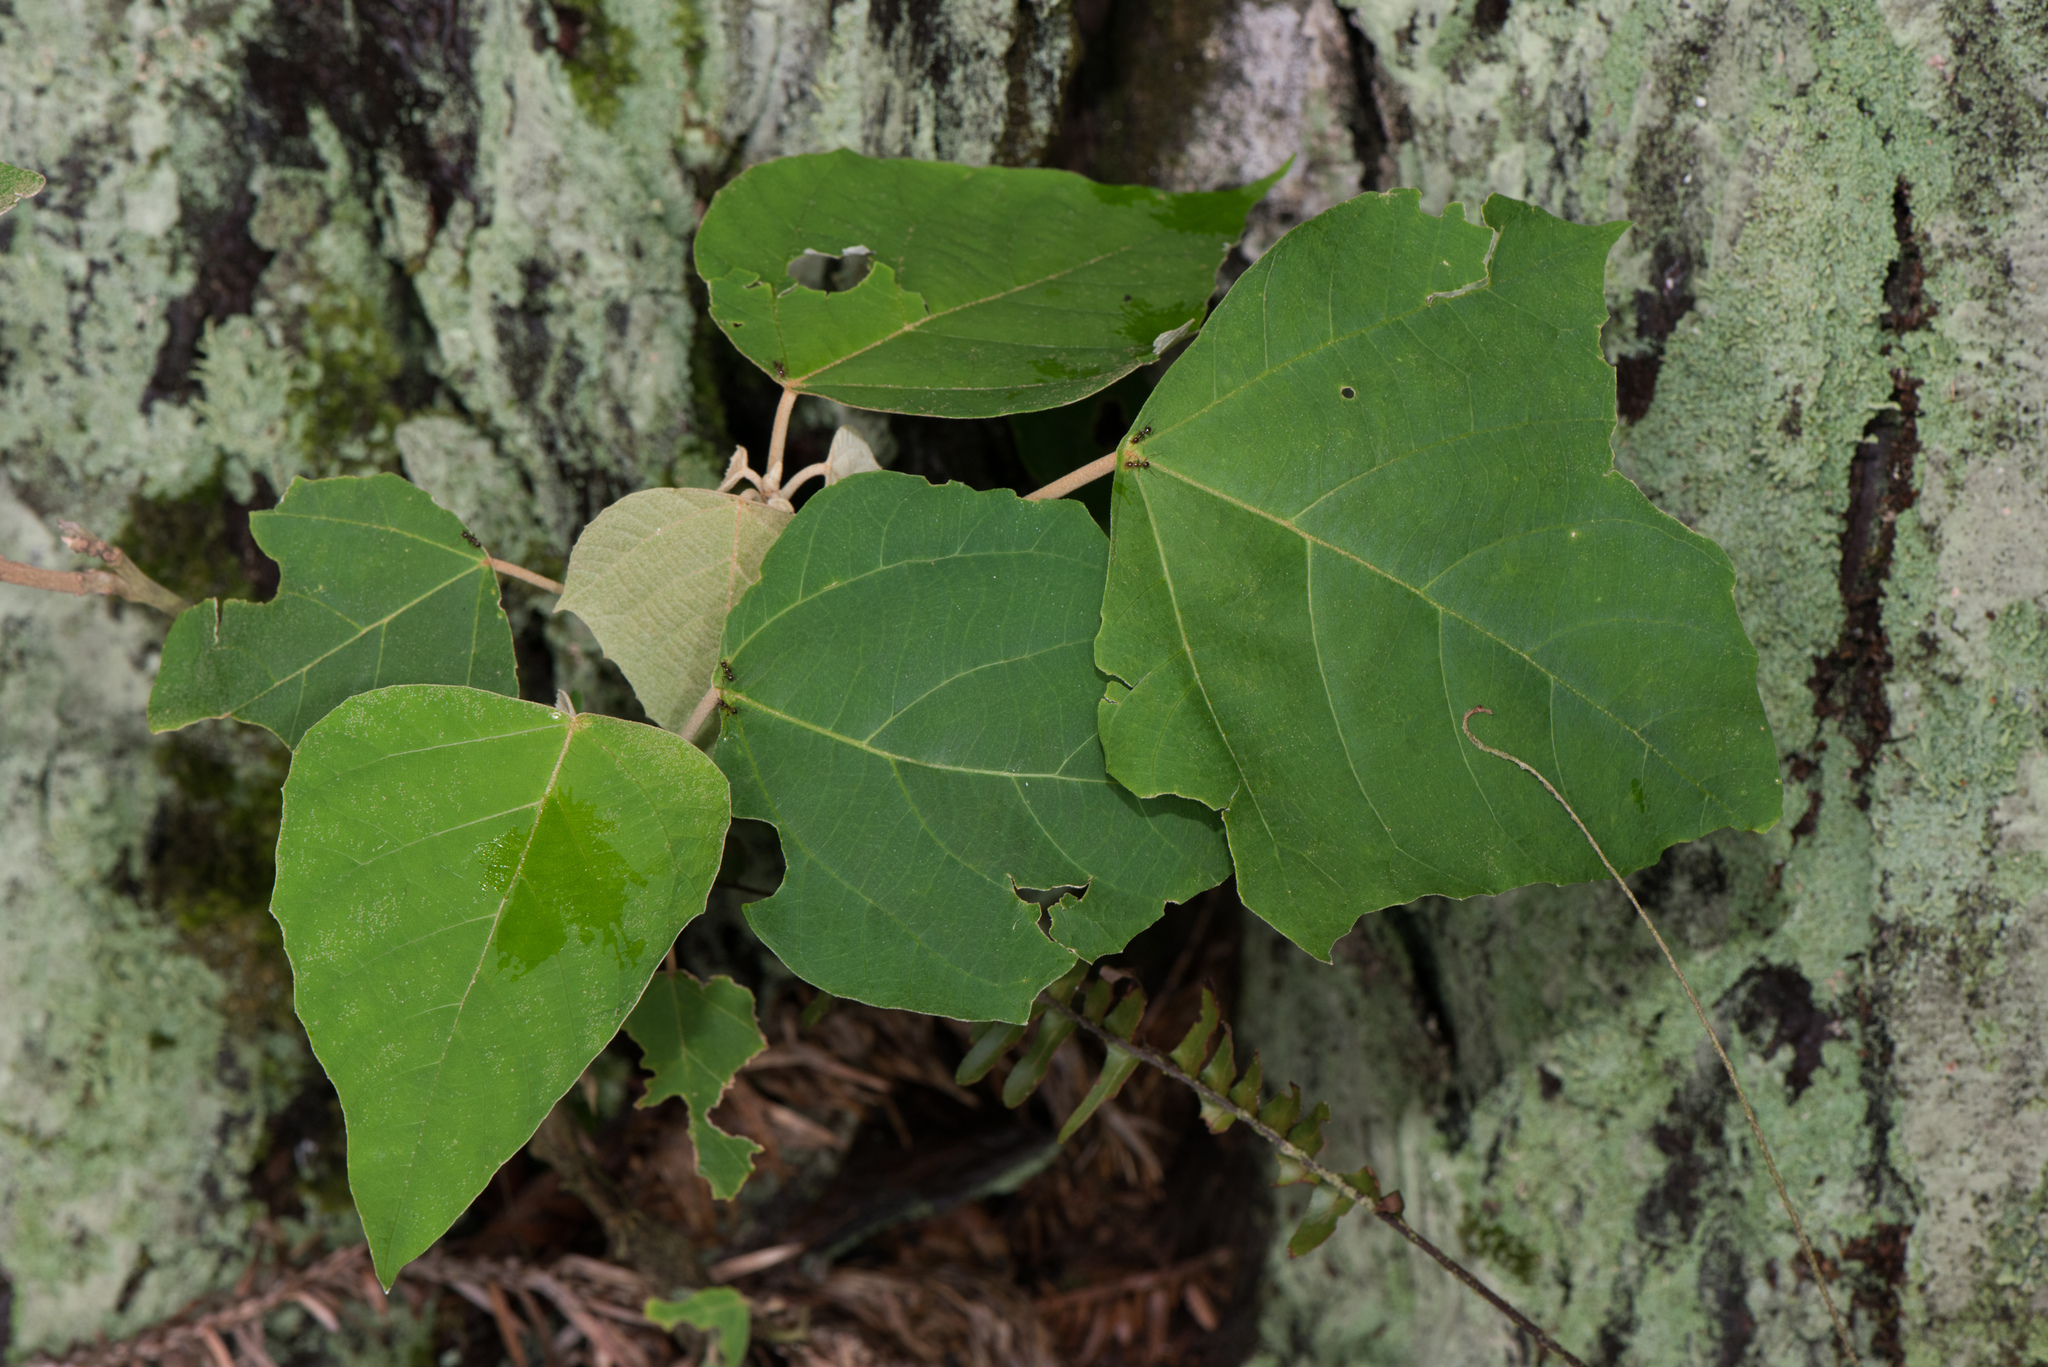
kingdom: Plantae
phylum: Tracheophyta
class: Magnoliopsida
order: Malpighiales
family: Euphorbiaceae
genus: Mallotus
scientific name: Mallotus japonicus
